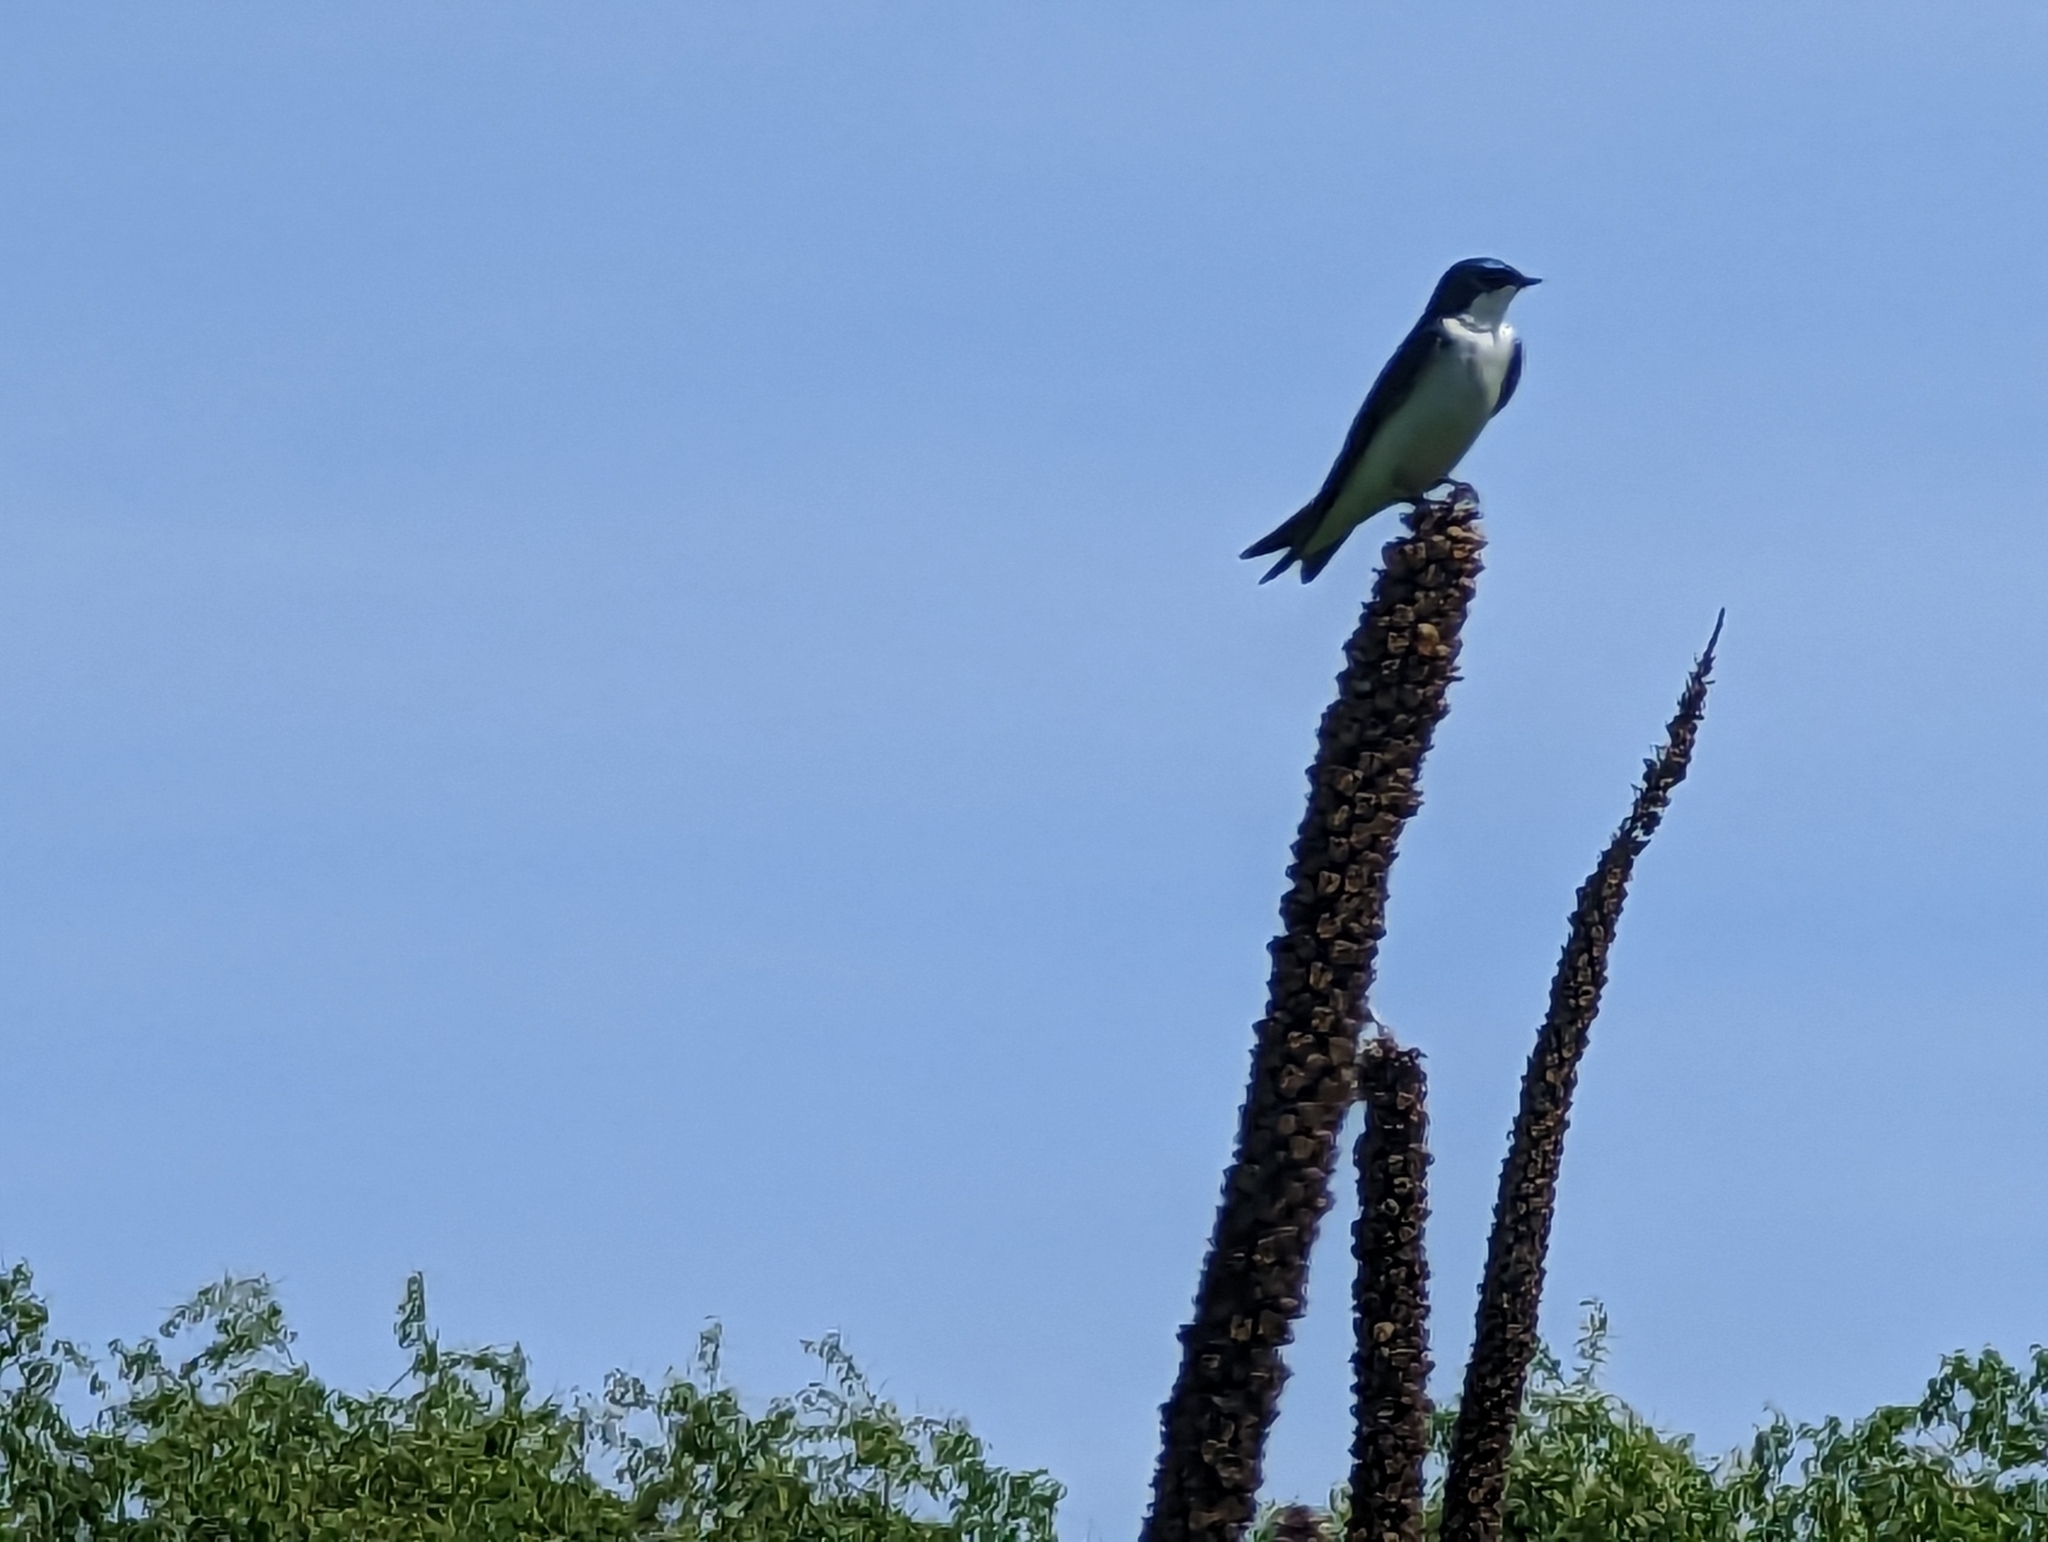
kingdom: Animalia
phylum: Chordata
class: Aves
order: Passeriformes
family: Hirundinidae
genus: Tachycineta
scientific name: Tachycineta bicolor
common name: Tree swallow
